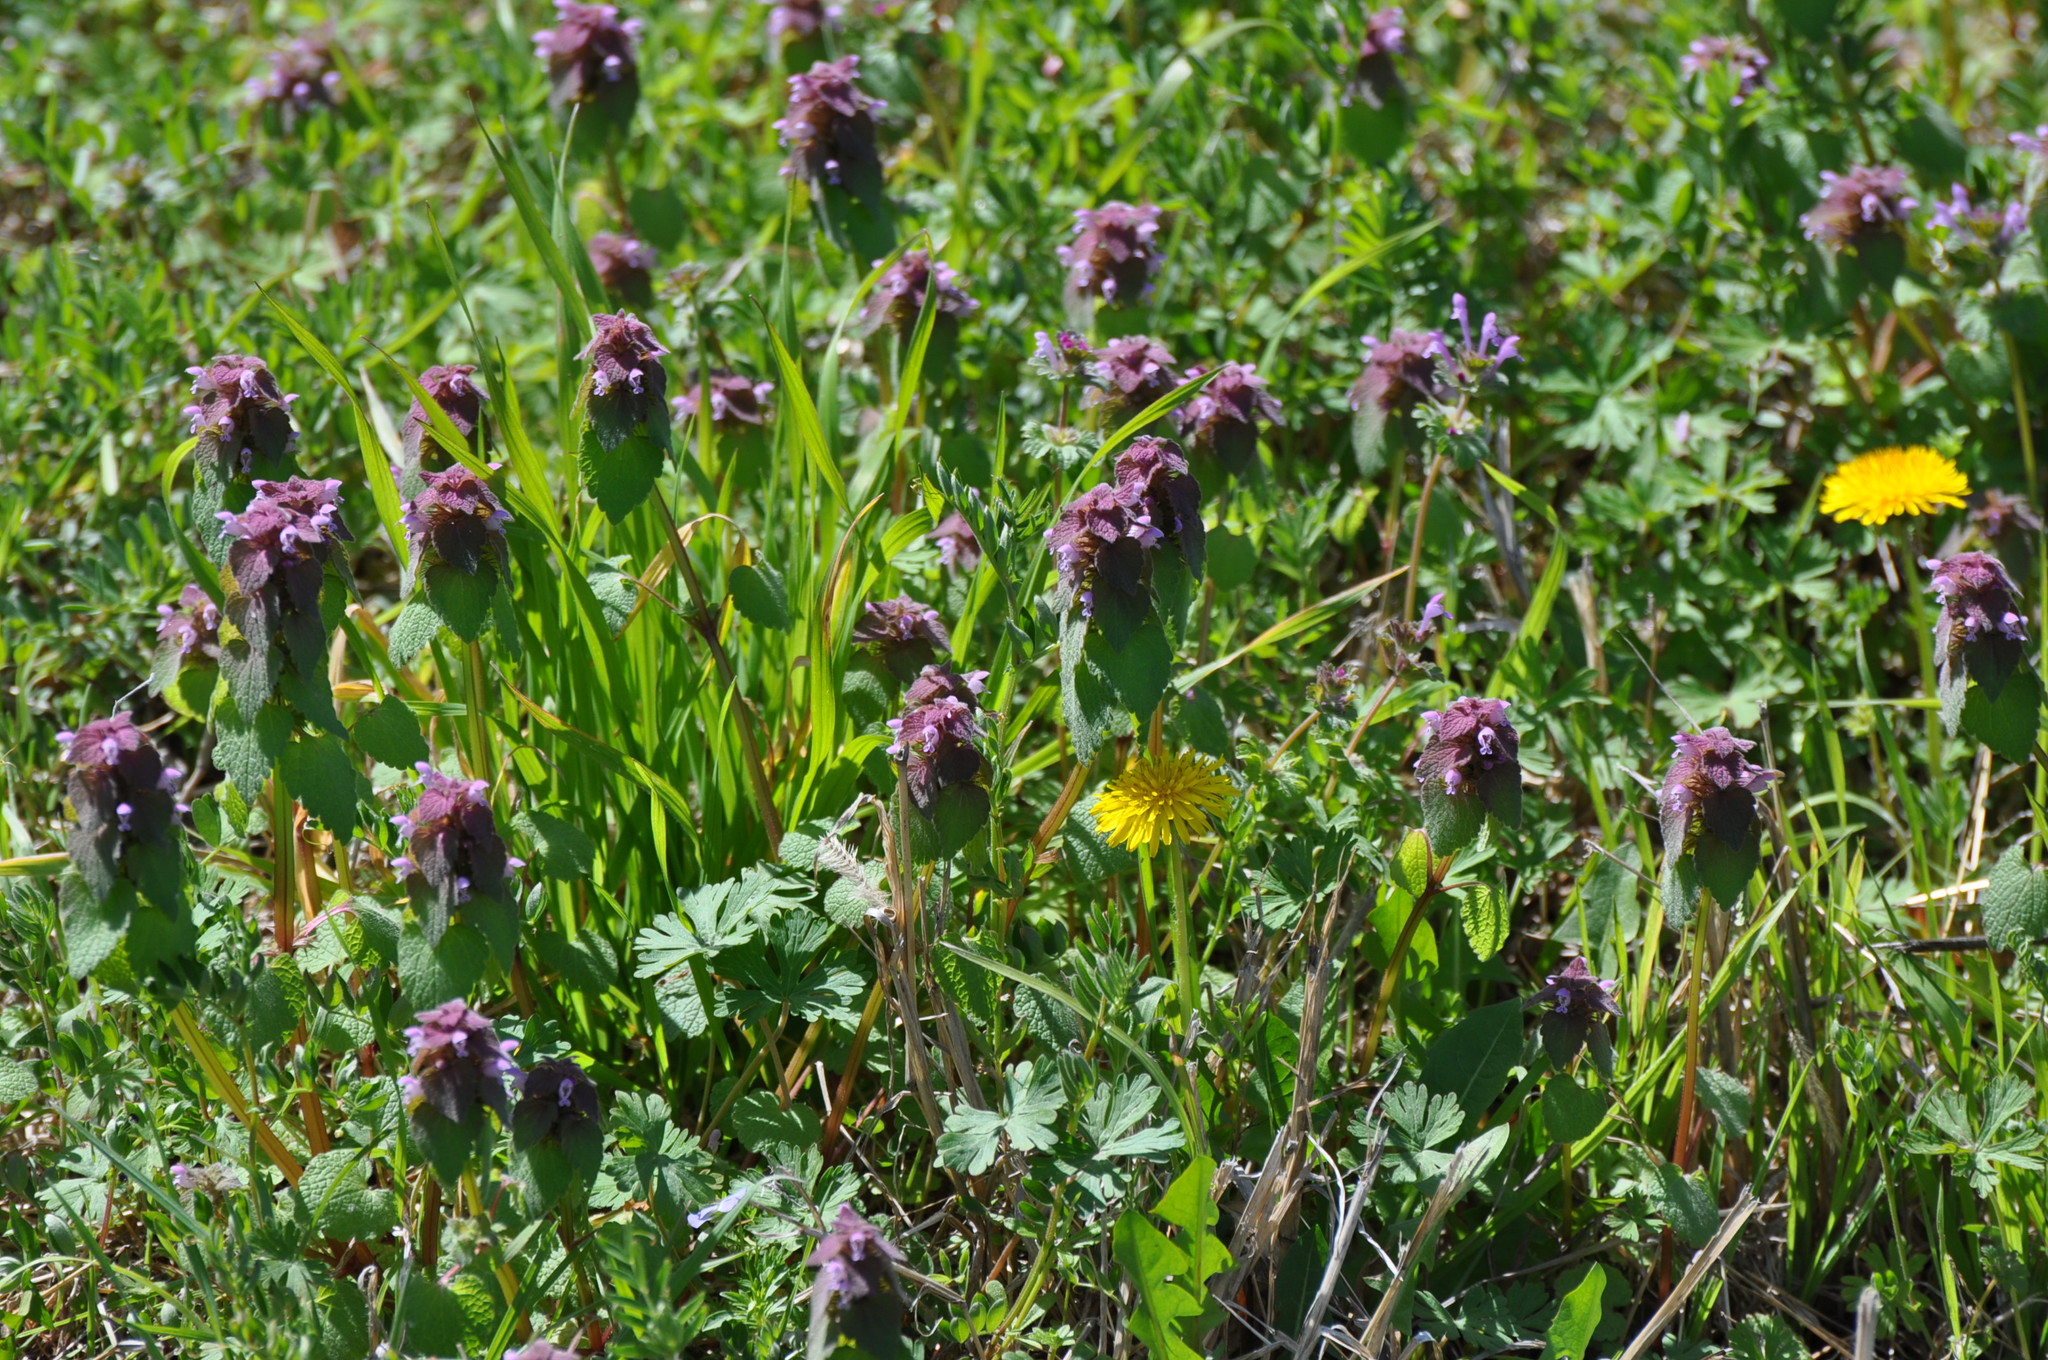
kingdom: Plantae
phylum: Tracheophyta
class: Magnoliopsida
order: Lamiales
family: Lamiaceae
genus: Lamium
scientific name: Lamium purpureum
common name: Red dead-nettle
